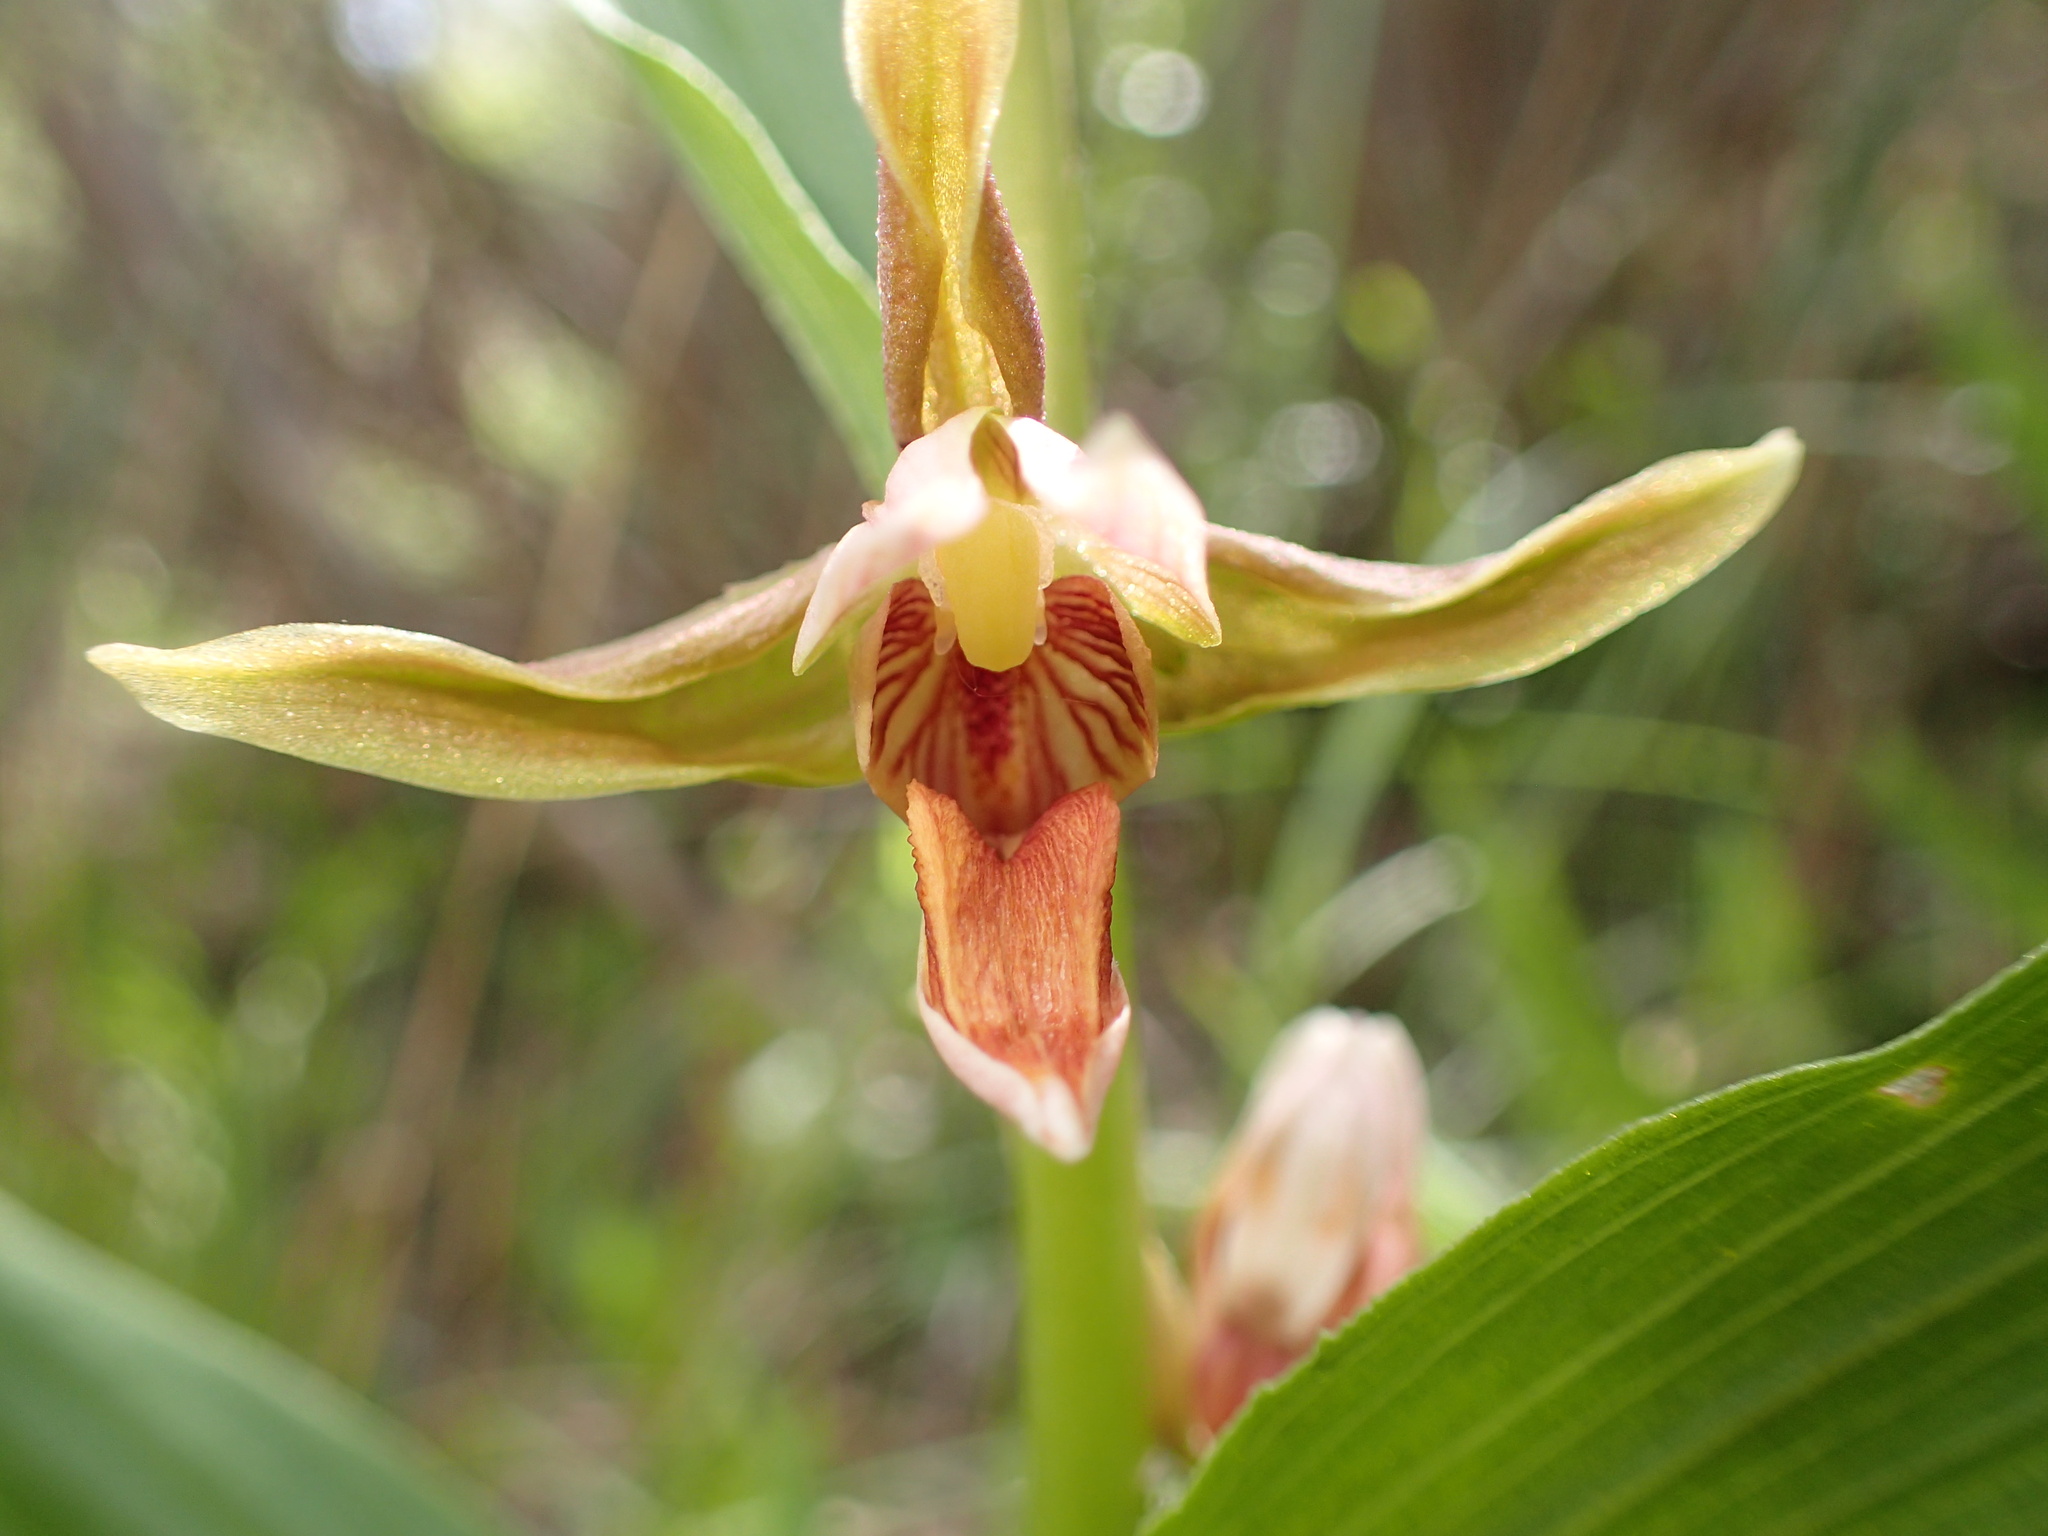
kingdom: Plantae
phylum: Tracheophyta
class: Liliopsida
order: Asparagales
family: Orchidaceae
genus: Epipactis
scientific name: Epipactis gigantea
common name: Chatterbox
